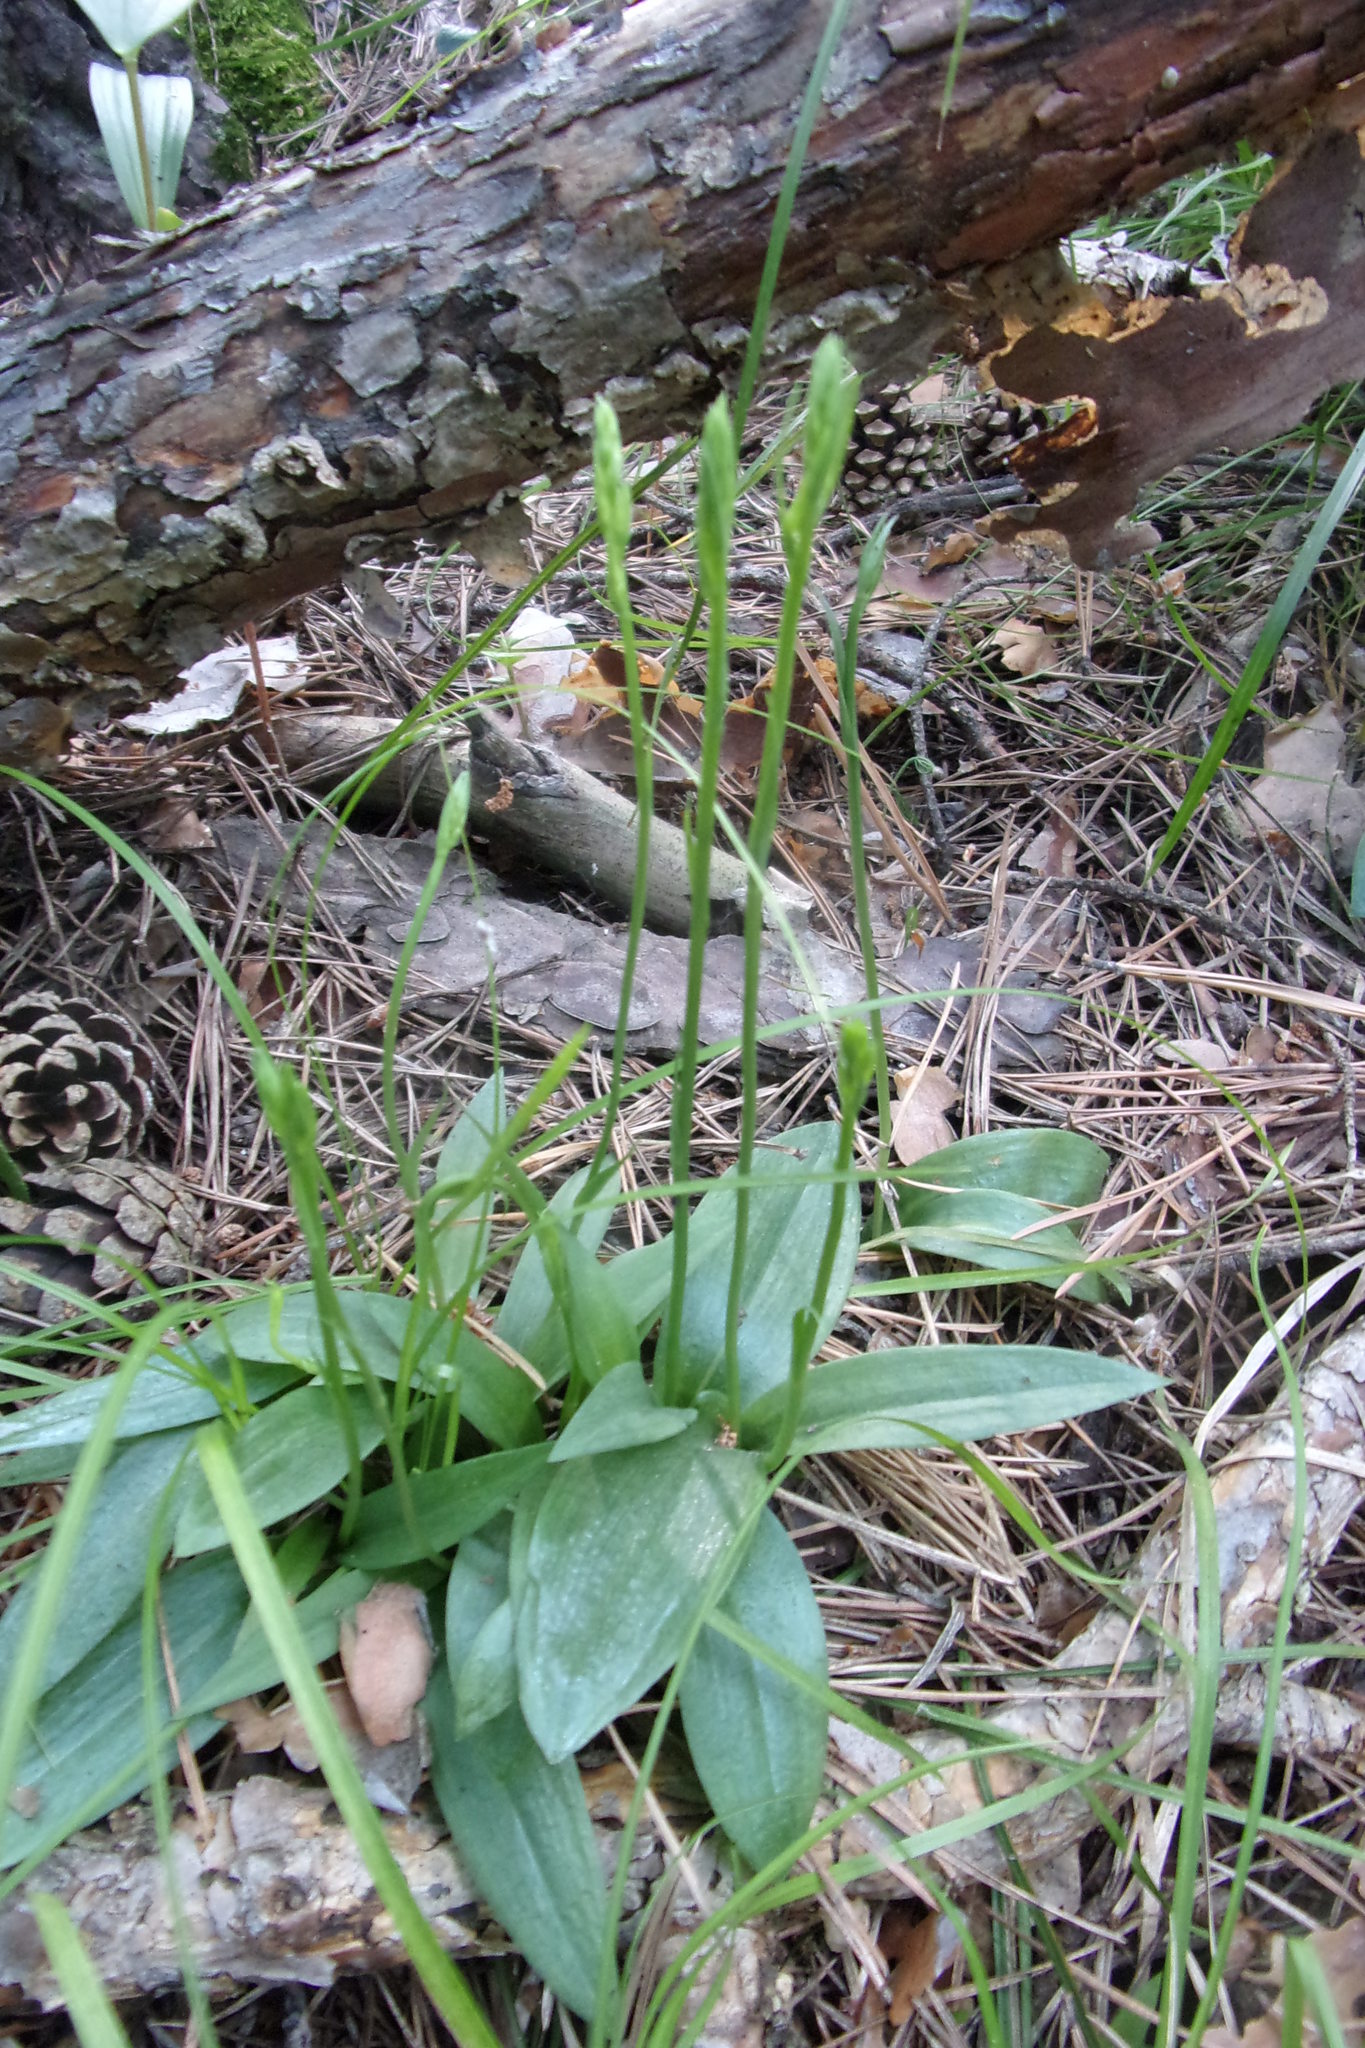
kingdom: Plantae
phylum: Tracheophyta
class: Liliopsida
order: Asparagales
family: Orchidaceae
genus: Hemipilia
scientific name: Hemipilia cucullata
